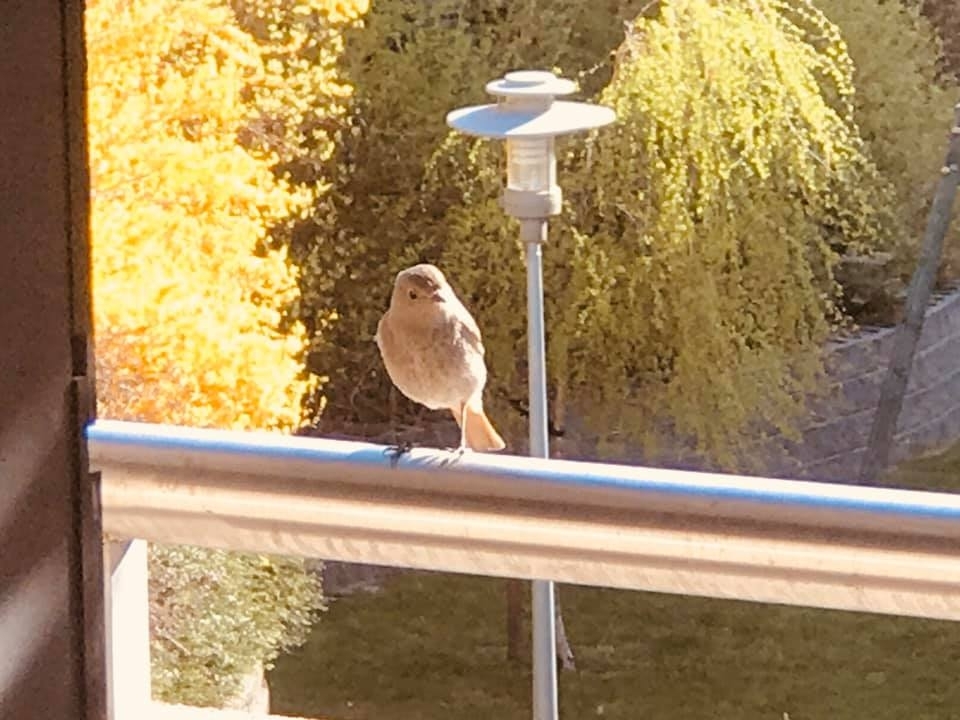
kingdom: Animalia
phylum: Chordata
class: Aves
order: Passeriformes
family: Muscicapidae
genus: Phoenicurus
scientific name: Phoenicurus ochruros
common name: Black redstart
